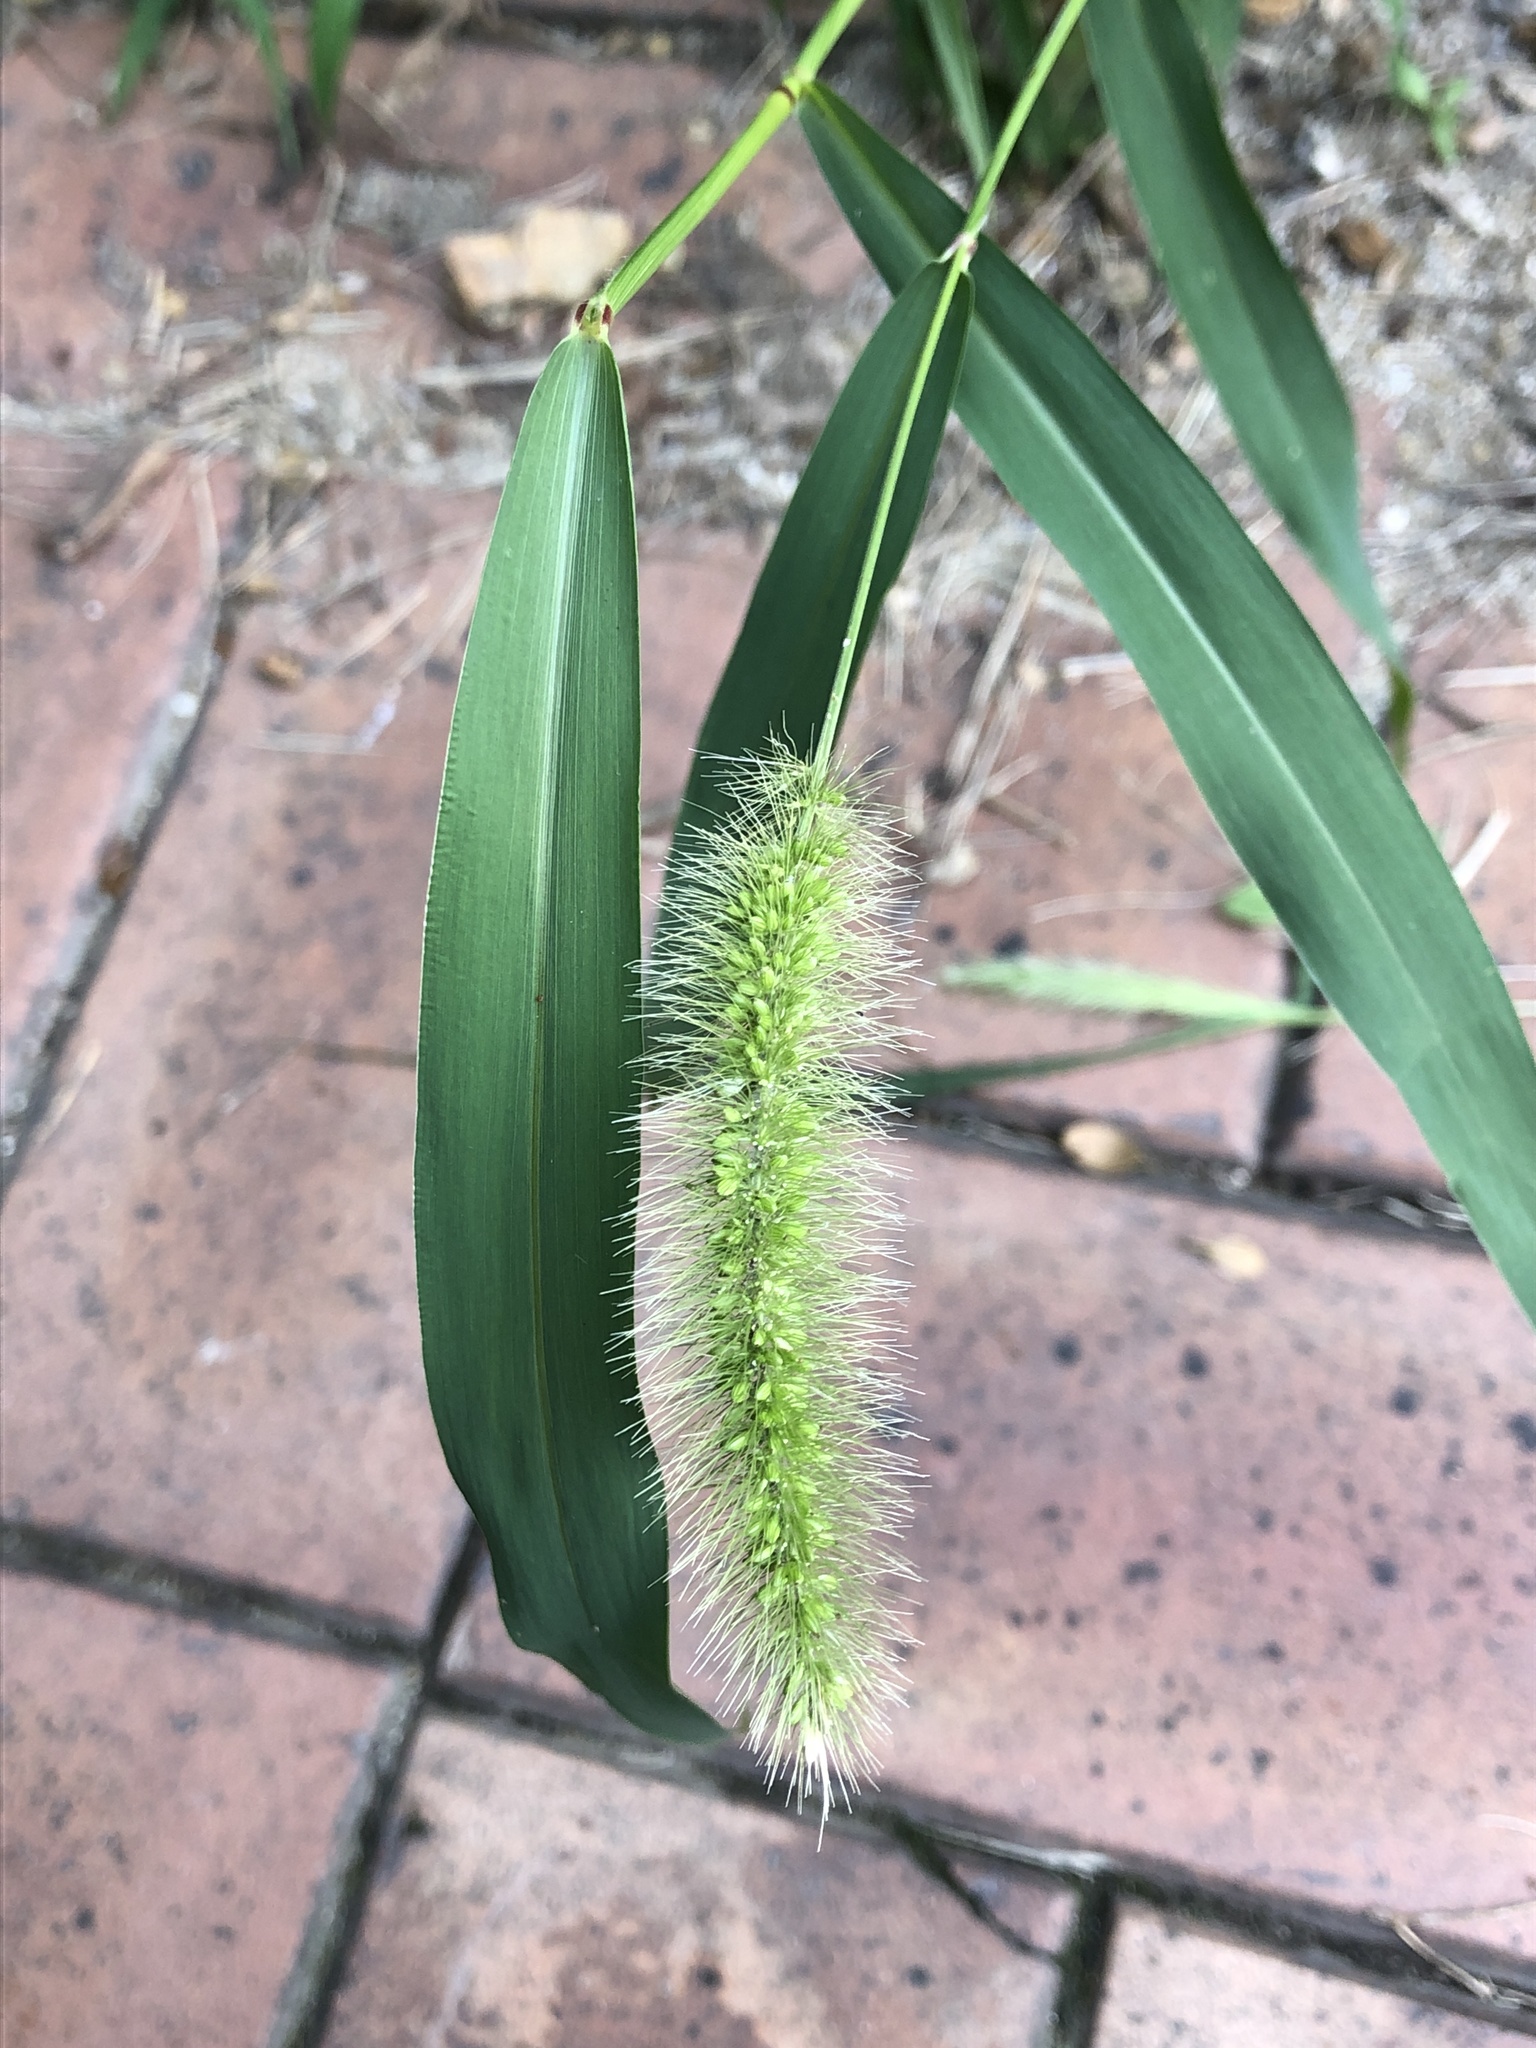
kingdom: Plantae
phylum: Tracheophyta
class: Liliopsida
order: Poales
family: Poaceae
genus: Setaria
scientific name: Setaria viridis
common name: Green bristlegrass
